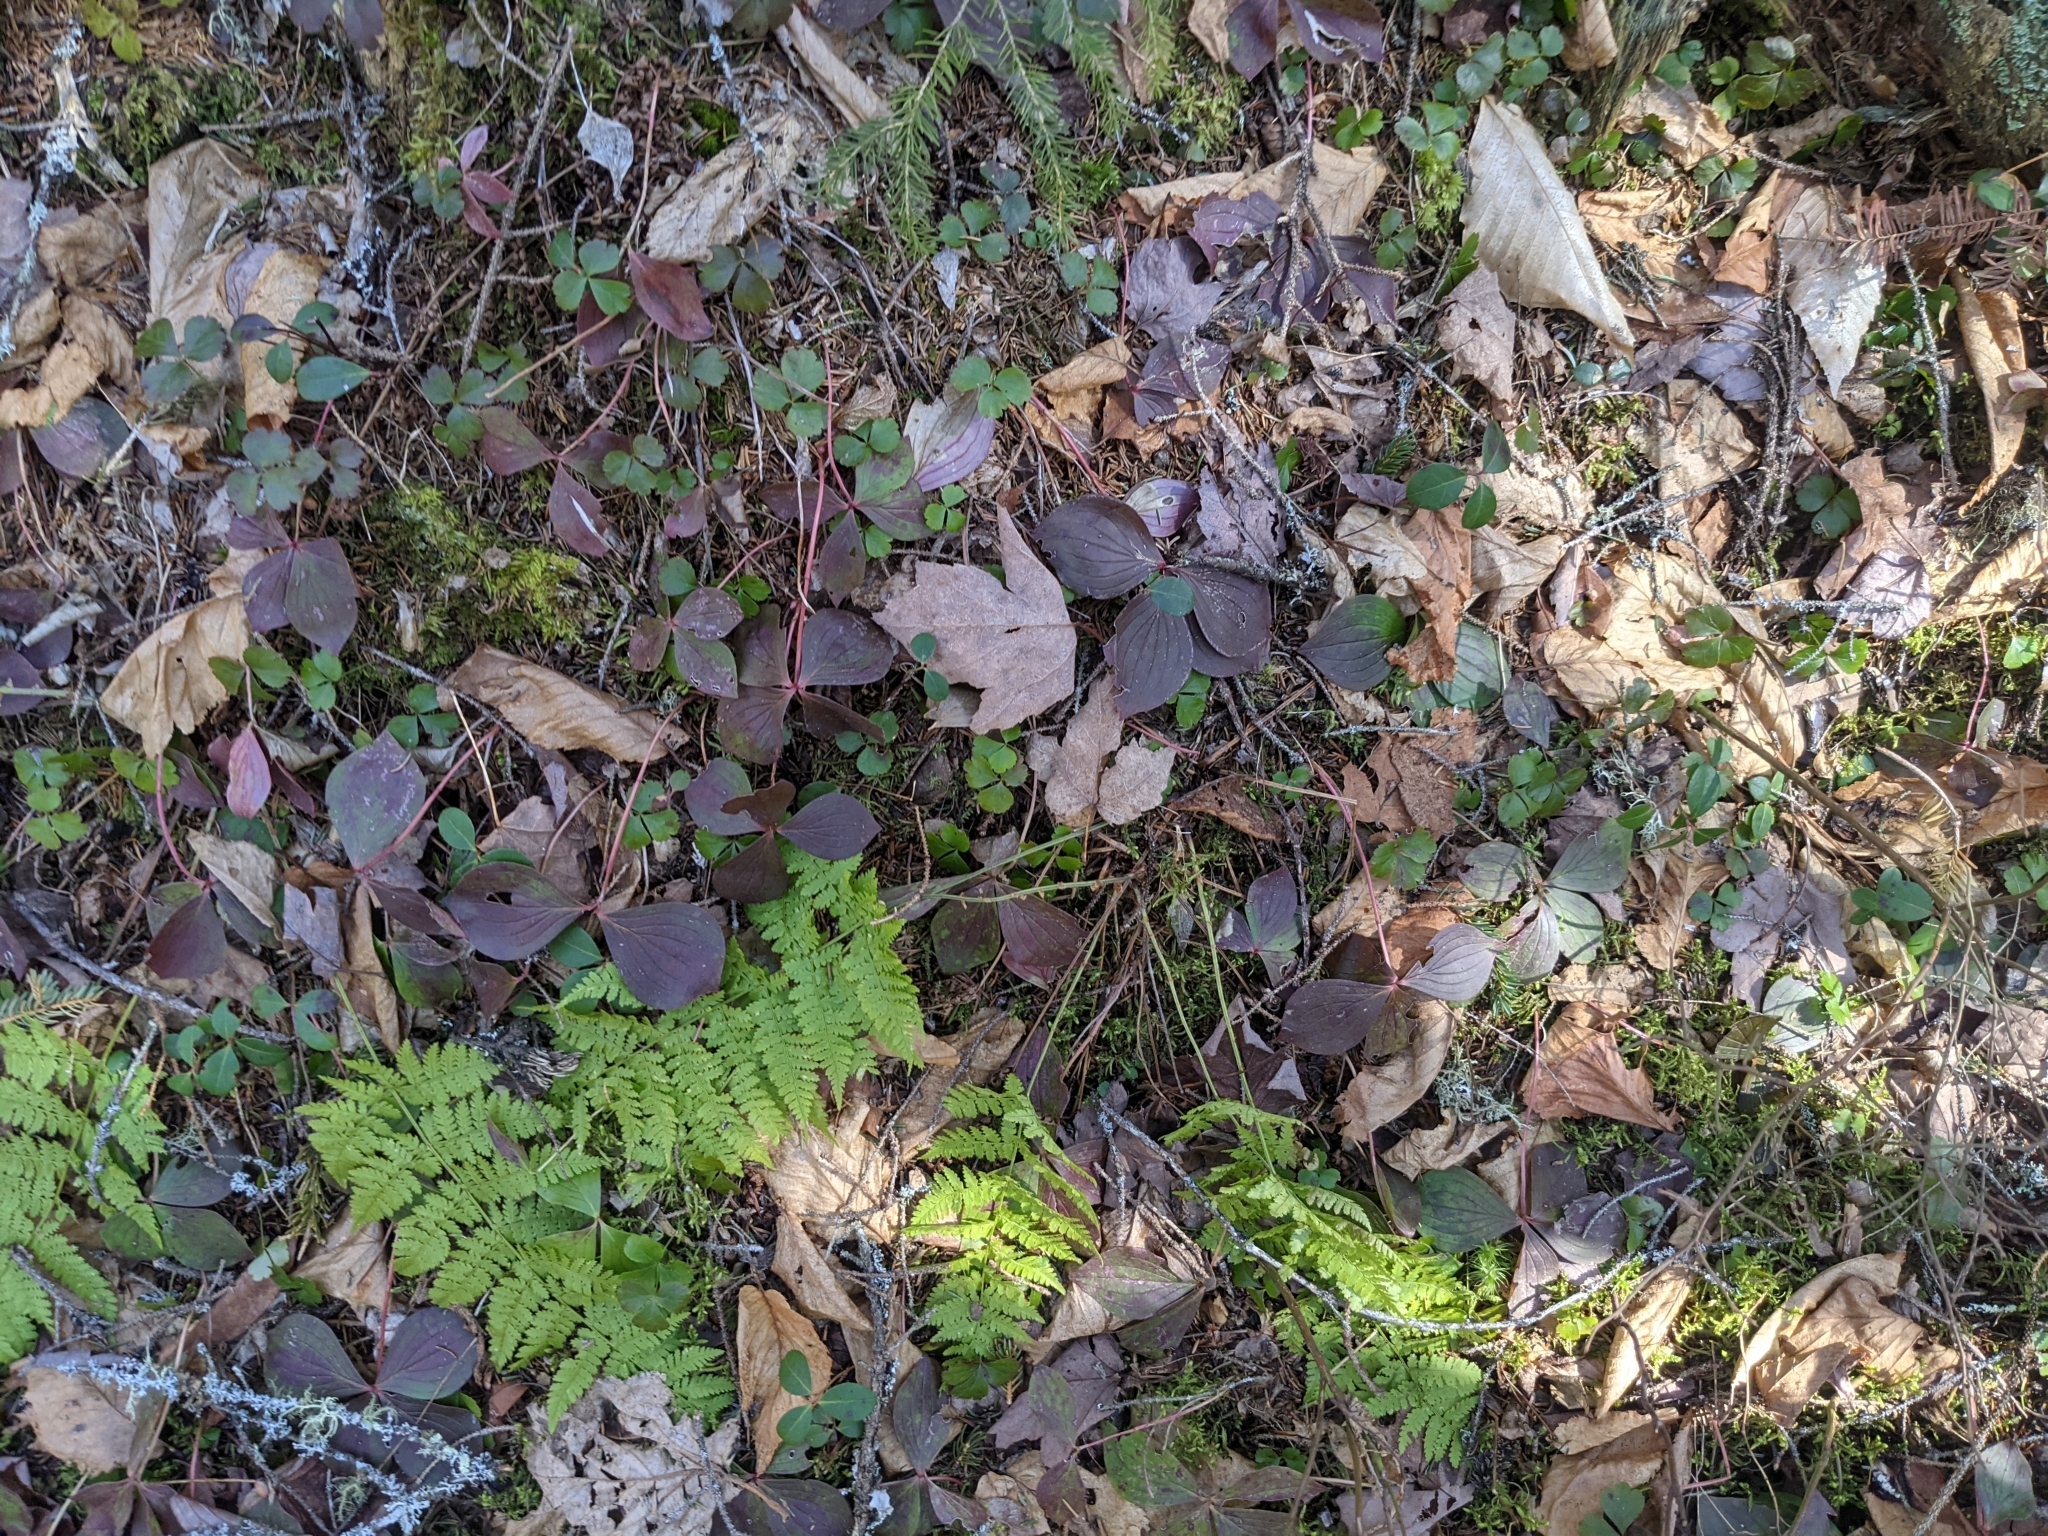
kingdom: Plantae
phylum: Tracheophyta
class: Magnoliopsida
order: Cornales
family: Cornaceae
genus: Cornus
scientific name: Cornus canadensis
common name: Creeping dogwood
